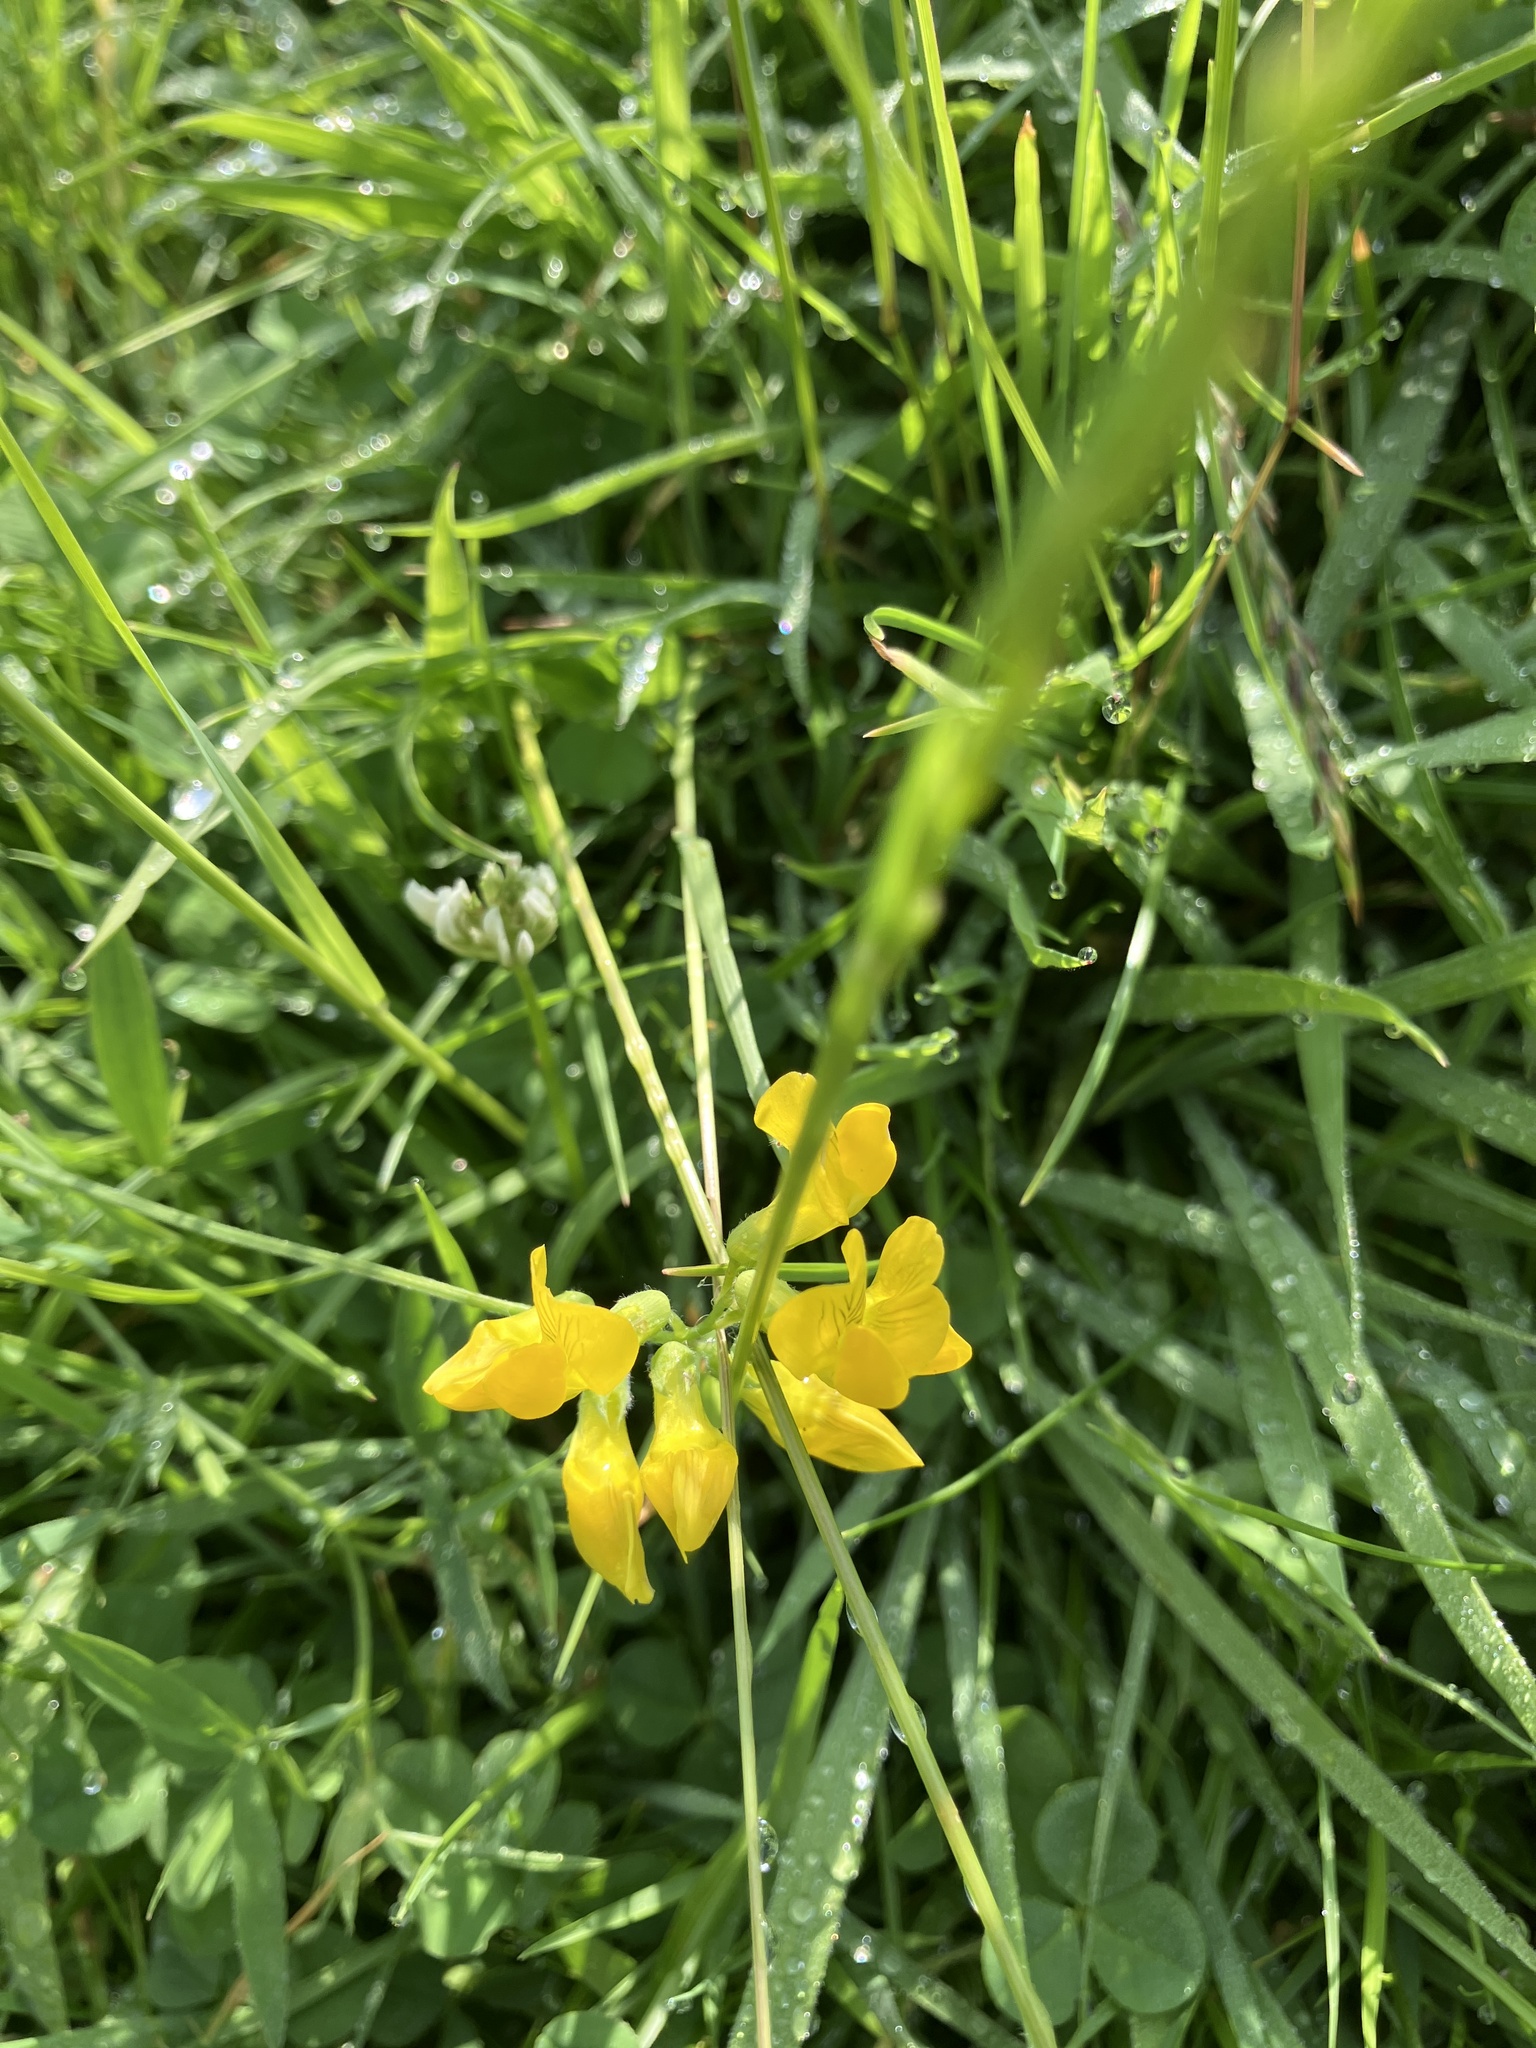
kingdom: Plantae
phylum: Tracheophyta
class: Magnoliopsida
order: Fabales
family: Fabaceae
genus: Lathyrus
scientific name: Lathyrus pratensis
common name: Meadow vetchling
